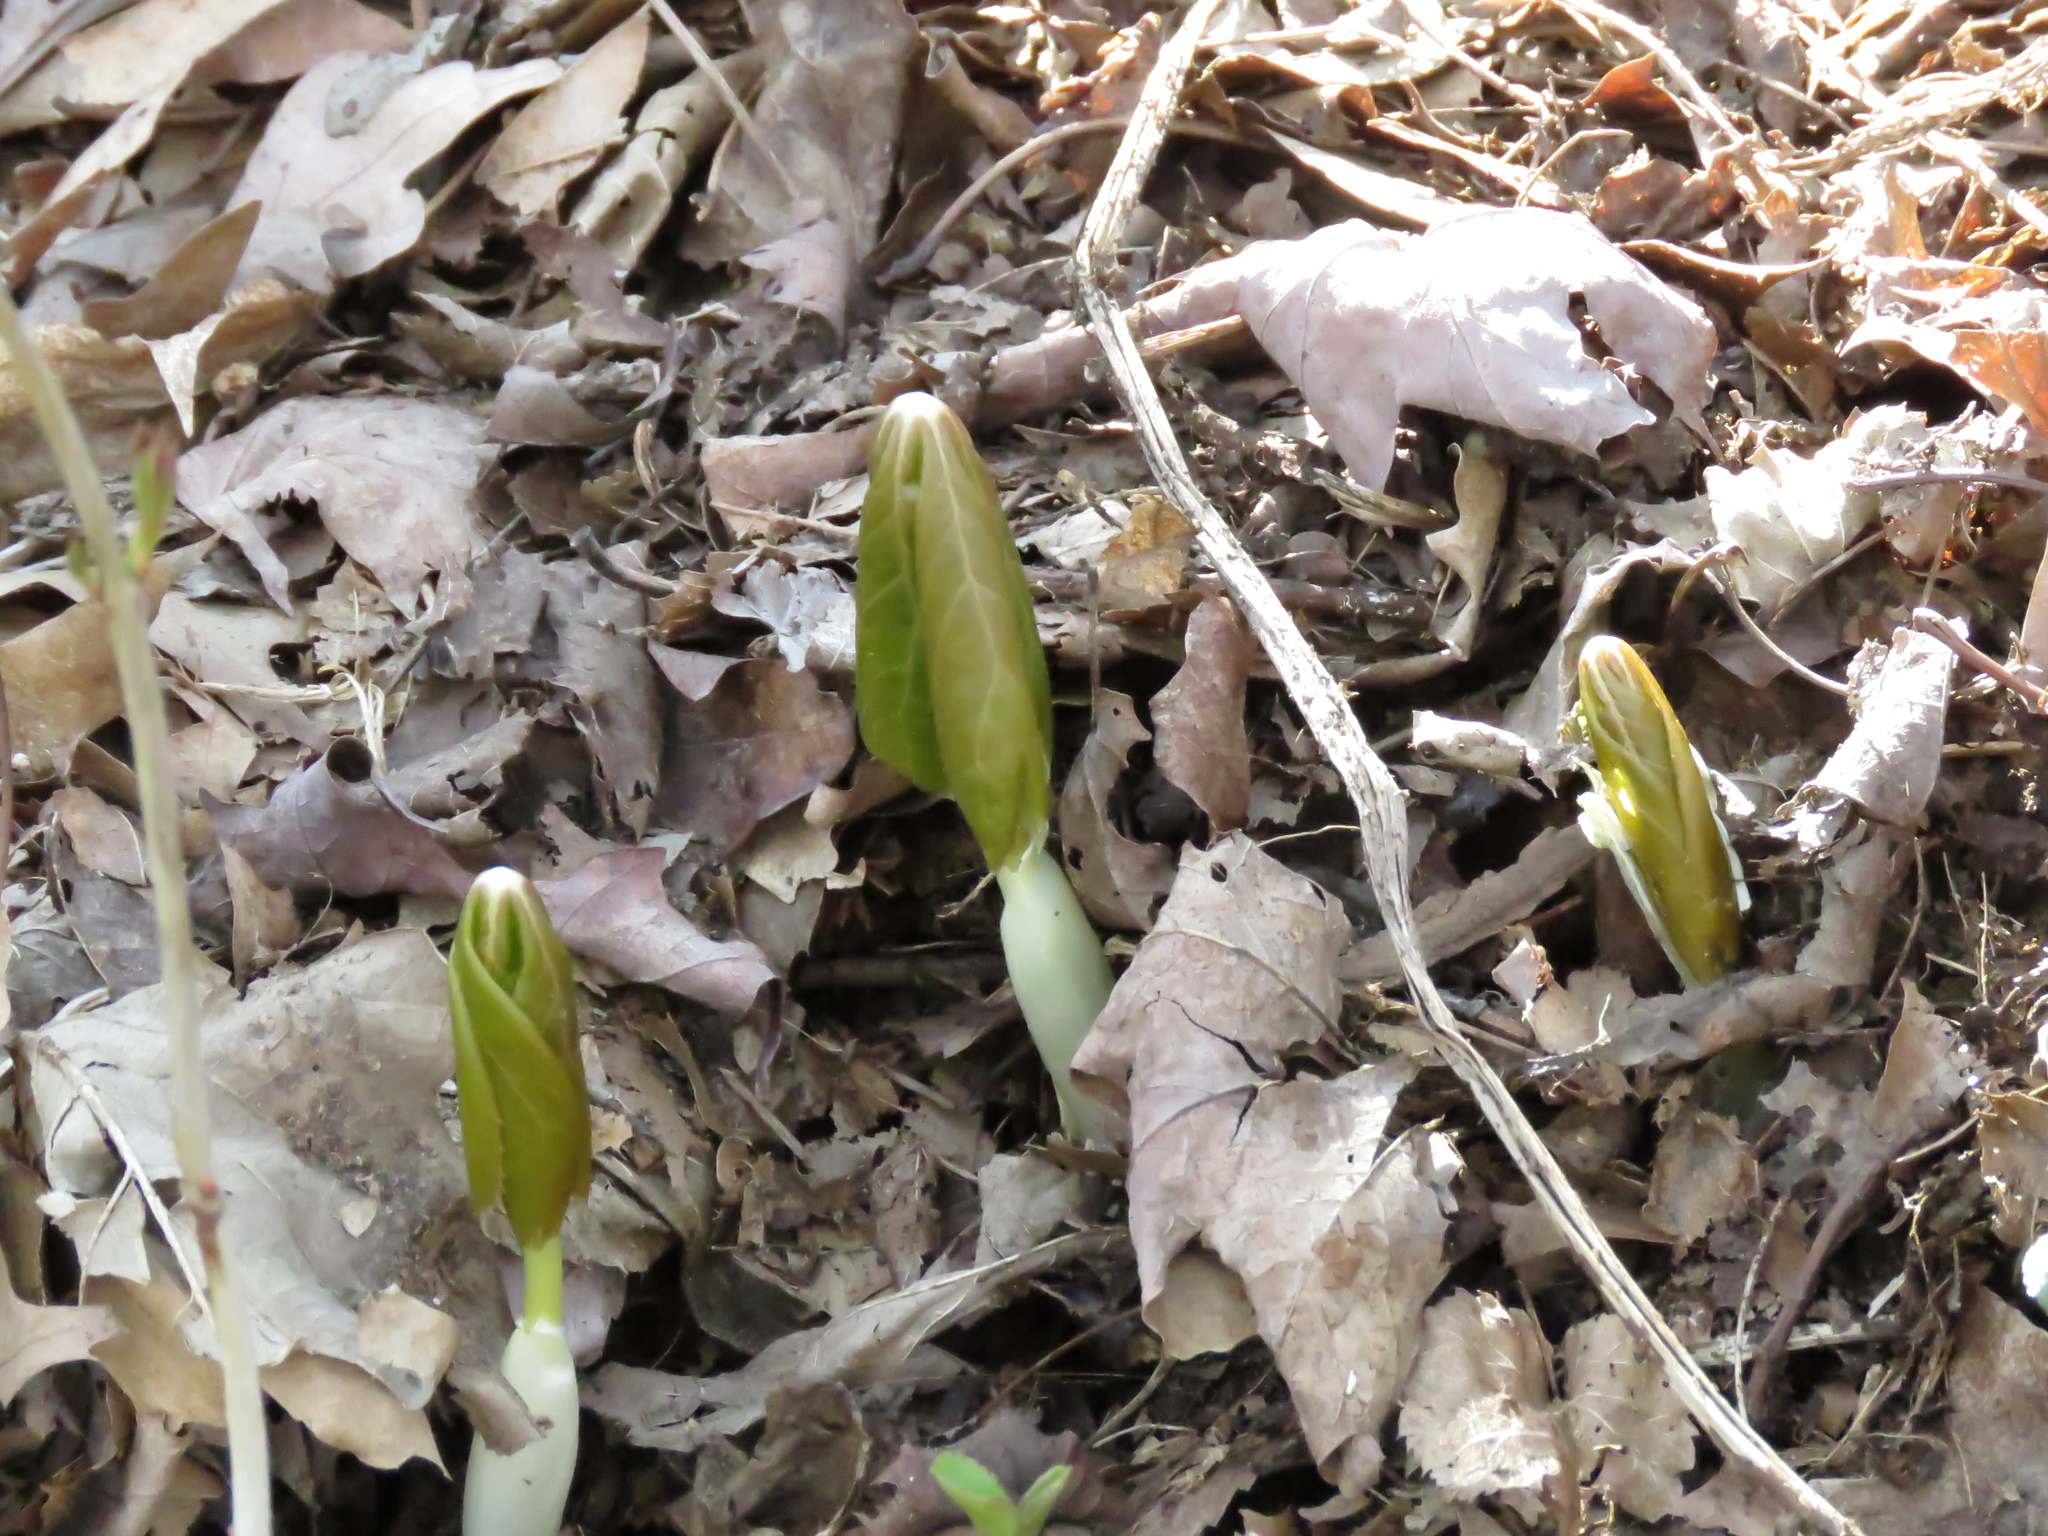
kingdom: Plantae
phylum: Tracheophyta
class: Magnoliopsida
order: Ranunculales
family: Berberidaceae
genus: Podophyllum
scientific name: Podophyllum peltatum
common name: Wild mandrake
